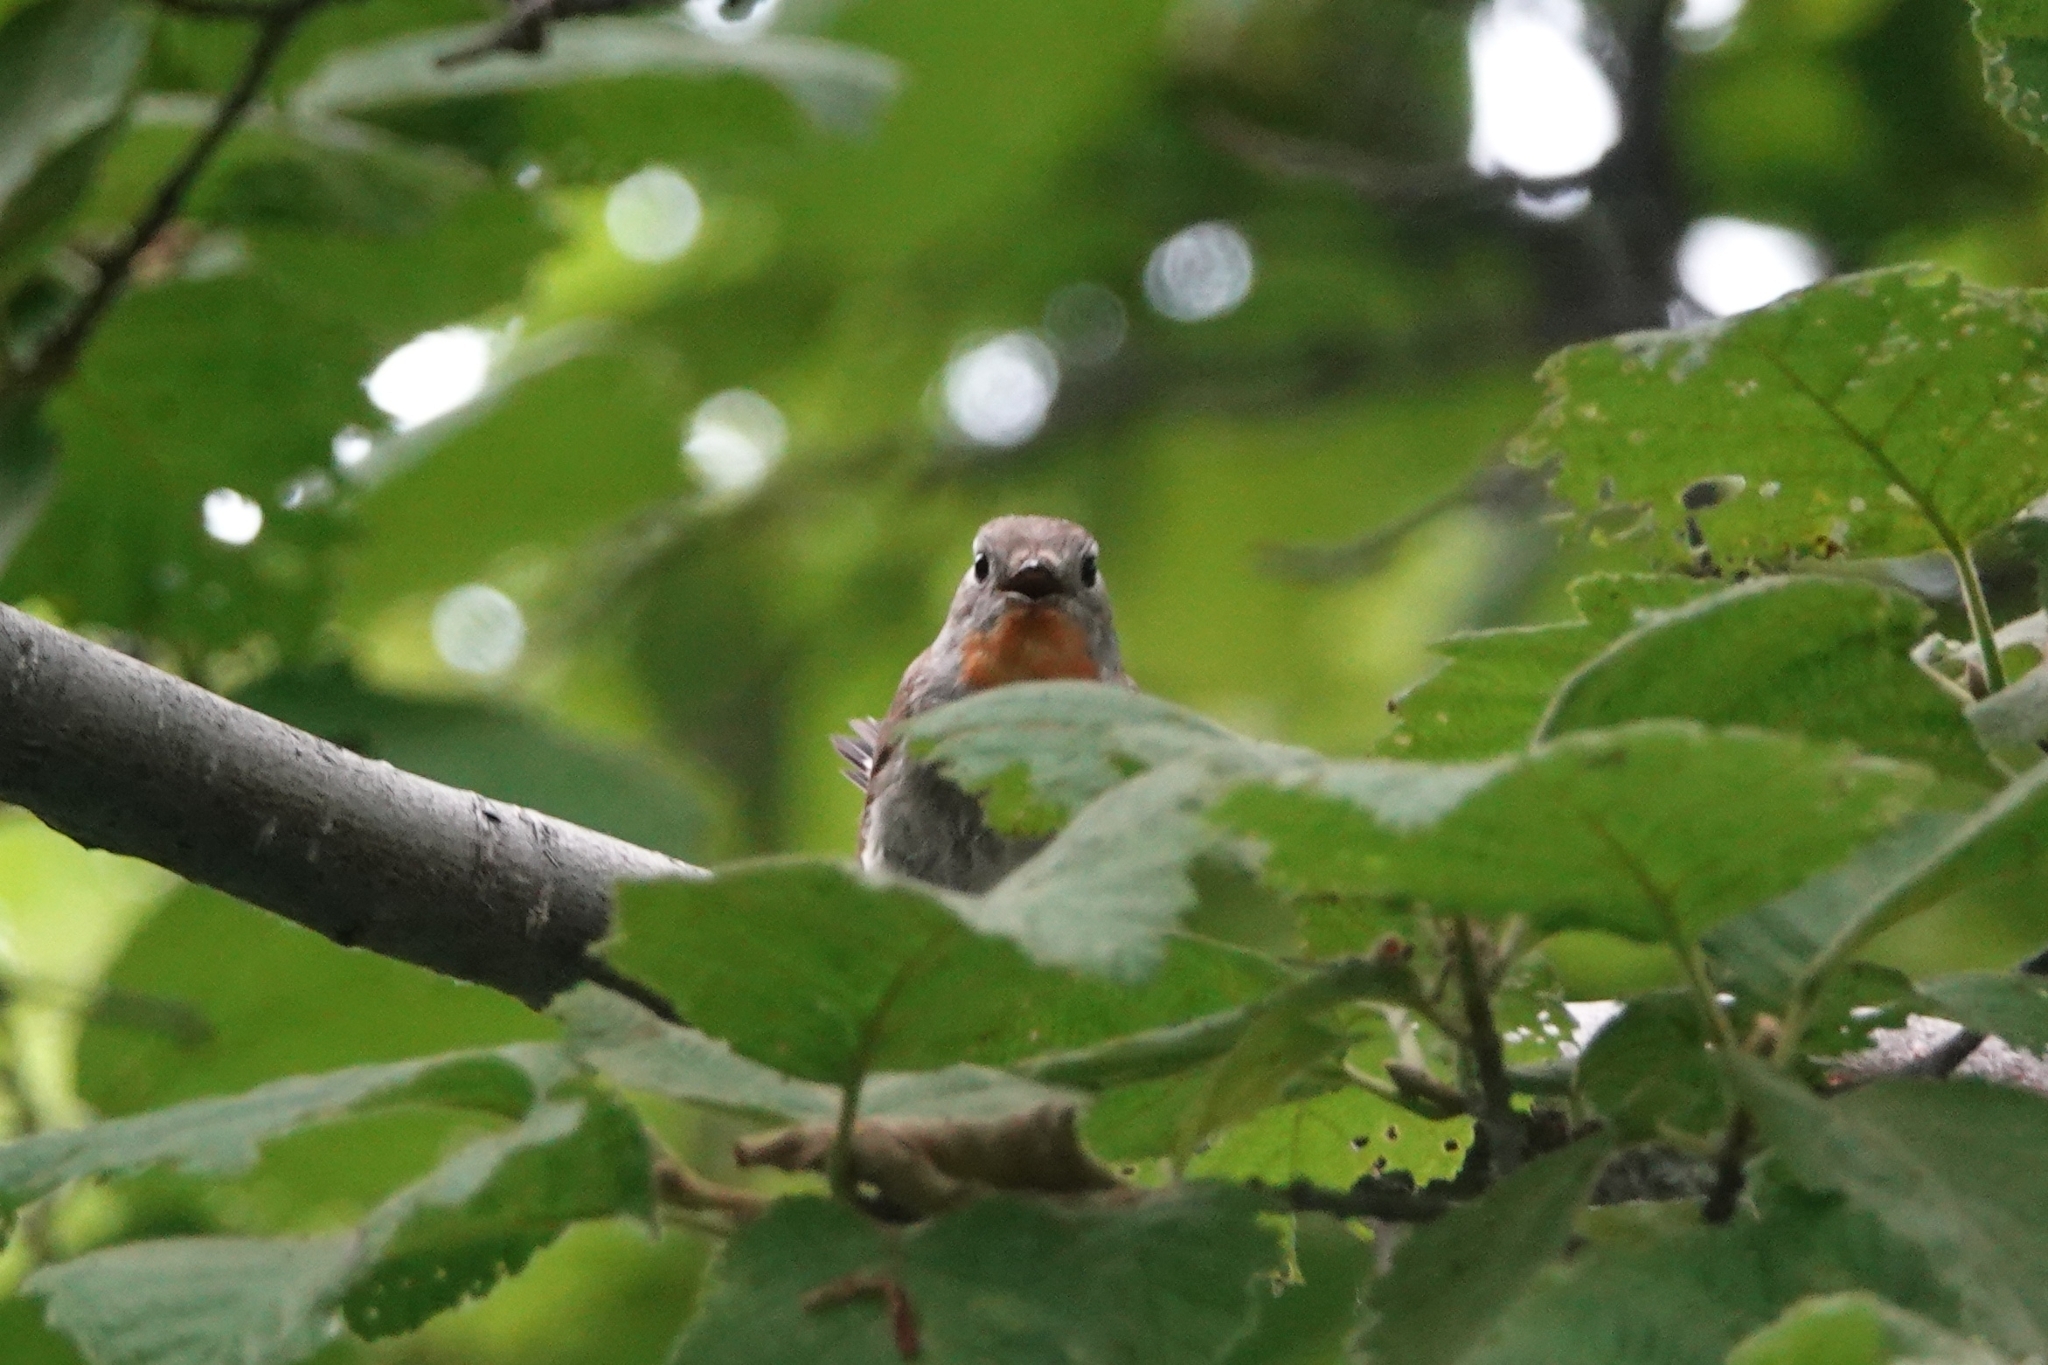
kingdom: Animalia
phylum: Chordata
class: Aves
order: Passeriformes
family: Muscicapidae
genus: Ficedula
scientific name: Ficedula albicilla
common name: Taiga flycatcher
